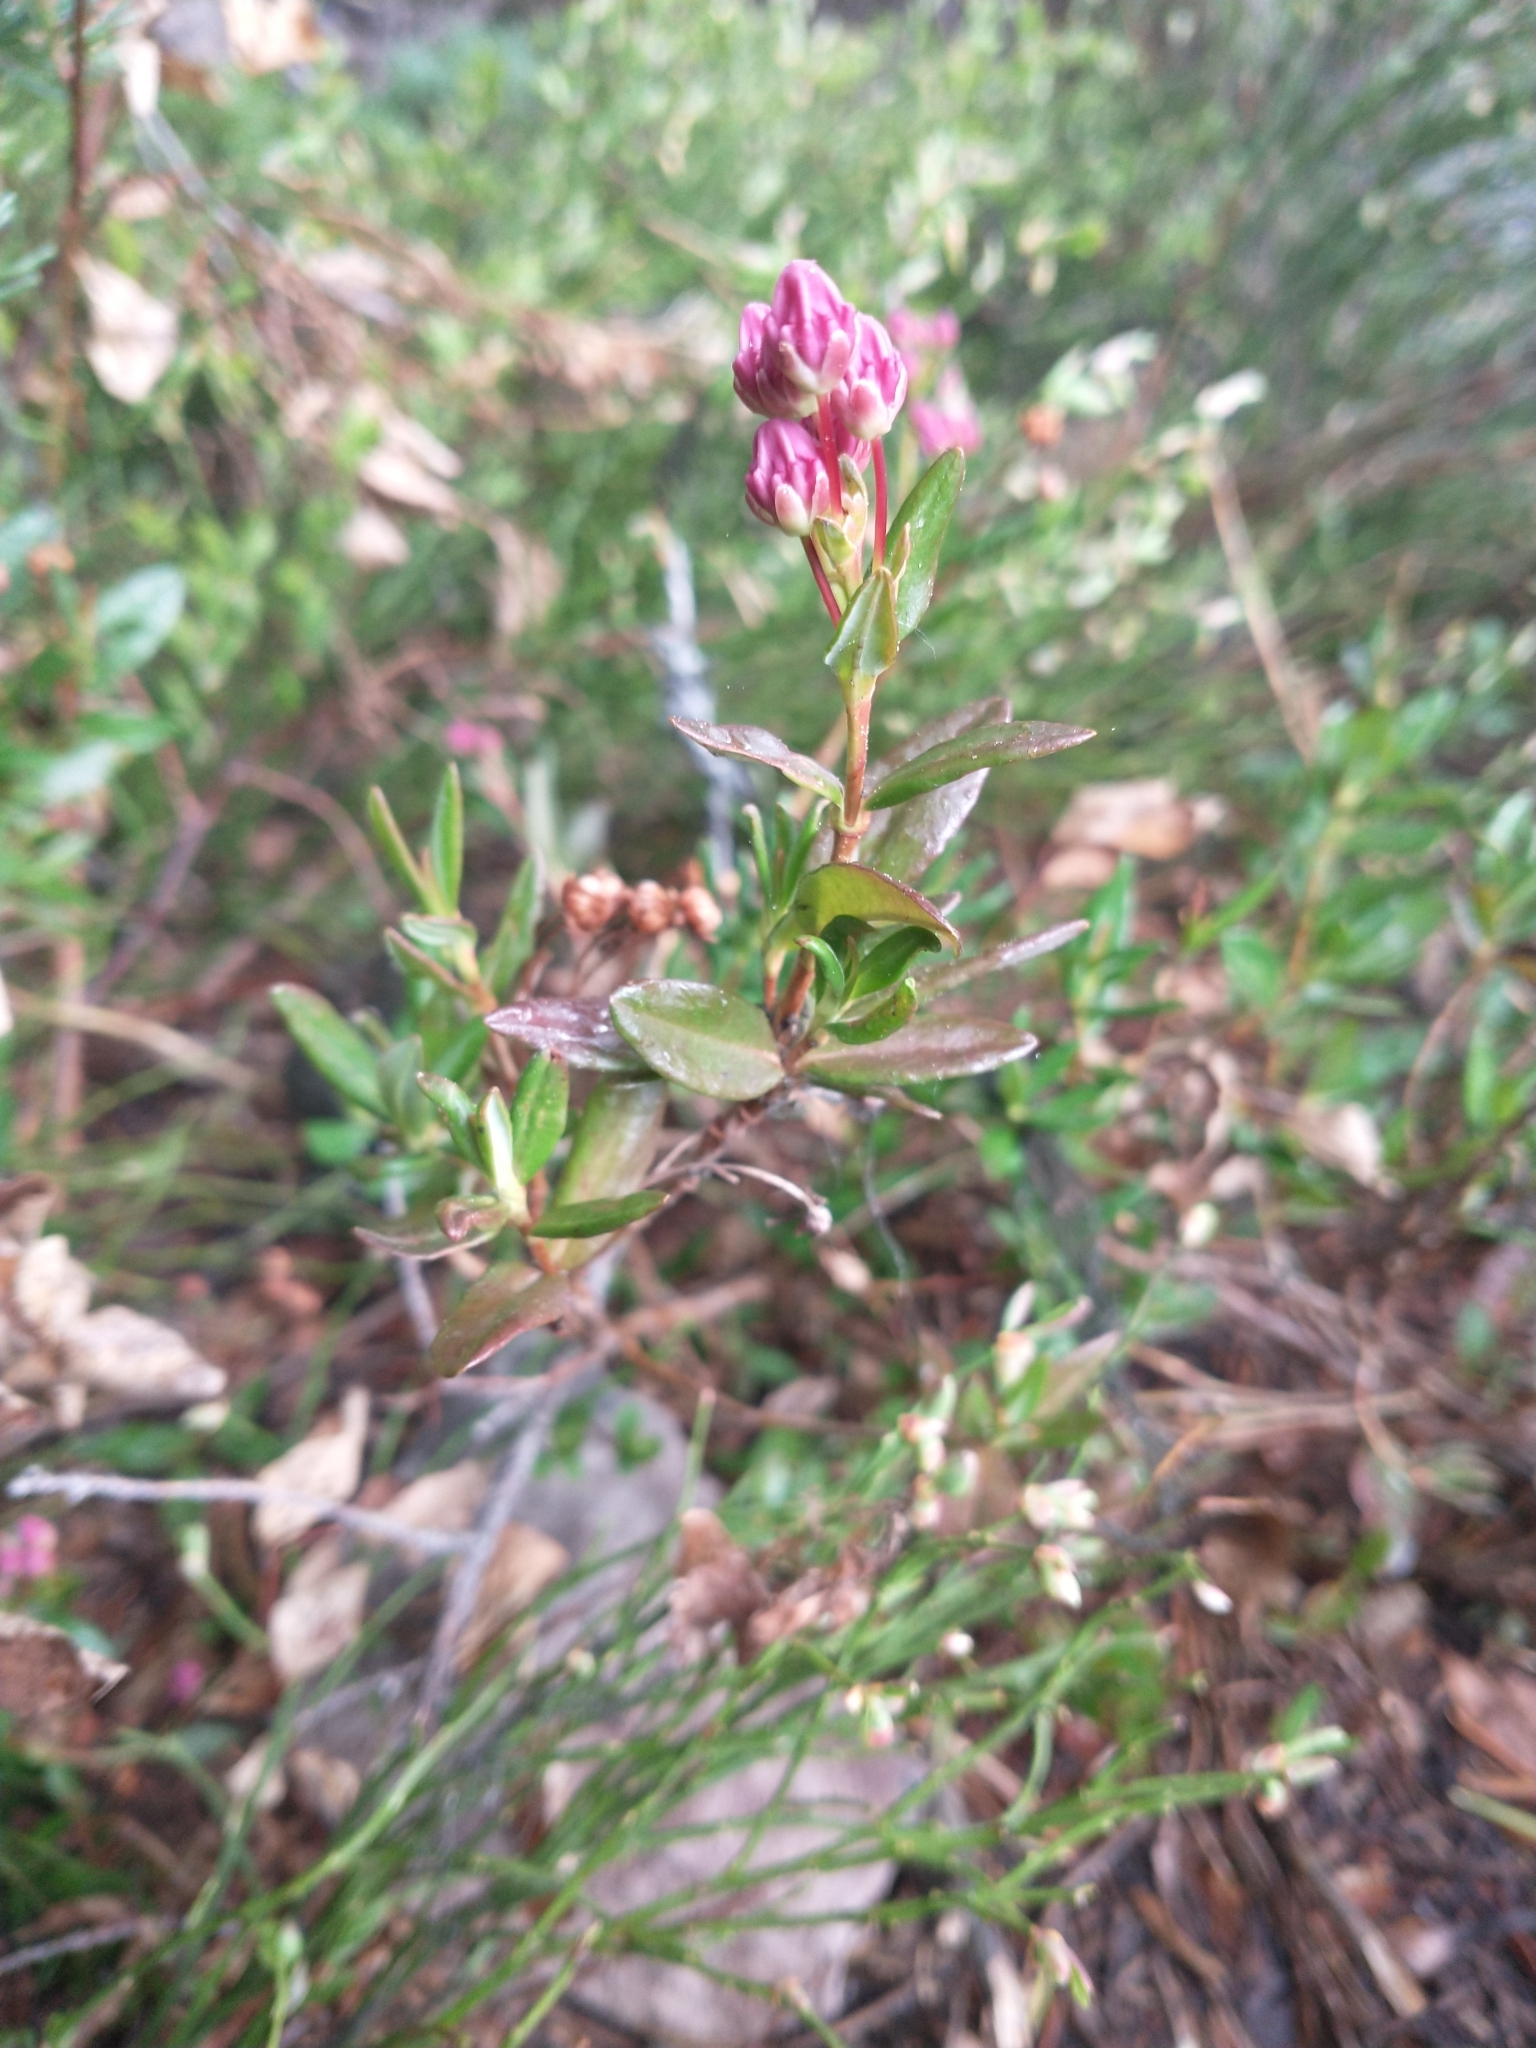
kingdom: Plantae
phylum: Tracheophyta
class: Magnoliopsida
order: Ericales
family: Ericaceae
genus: Kalmia
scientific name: Kalmia microphylla
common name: Alpine bog laurel
